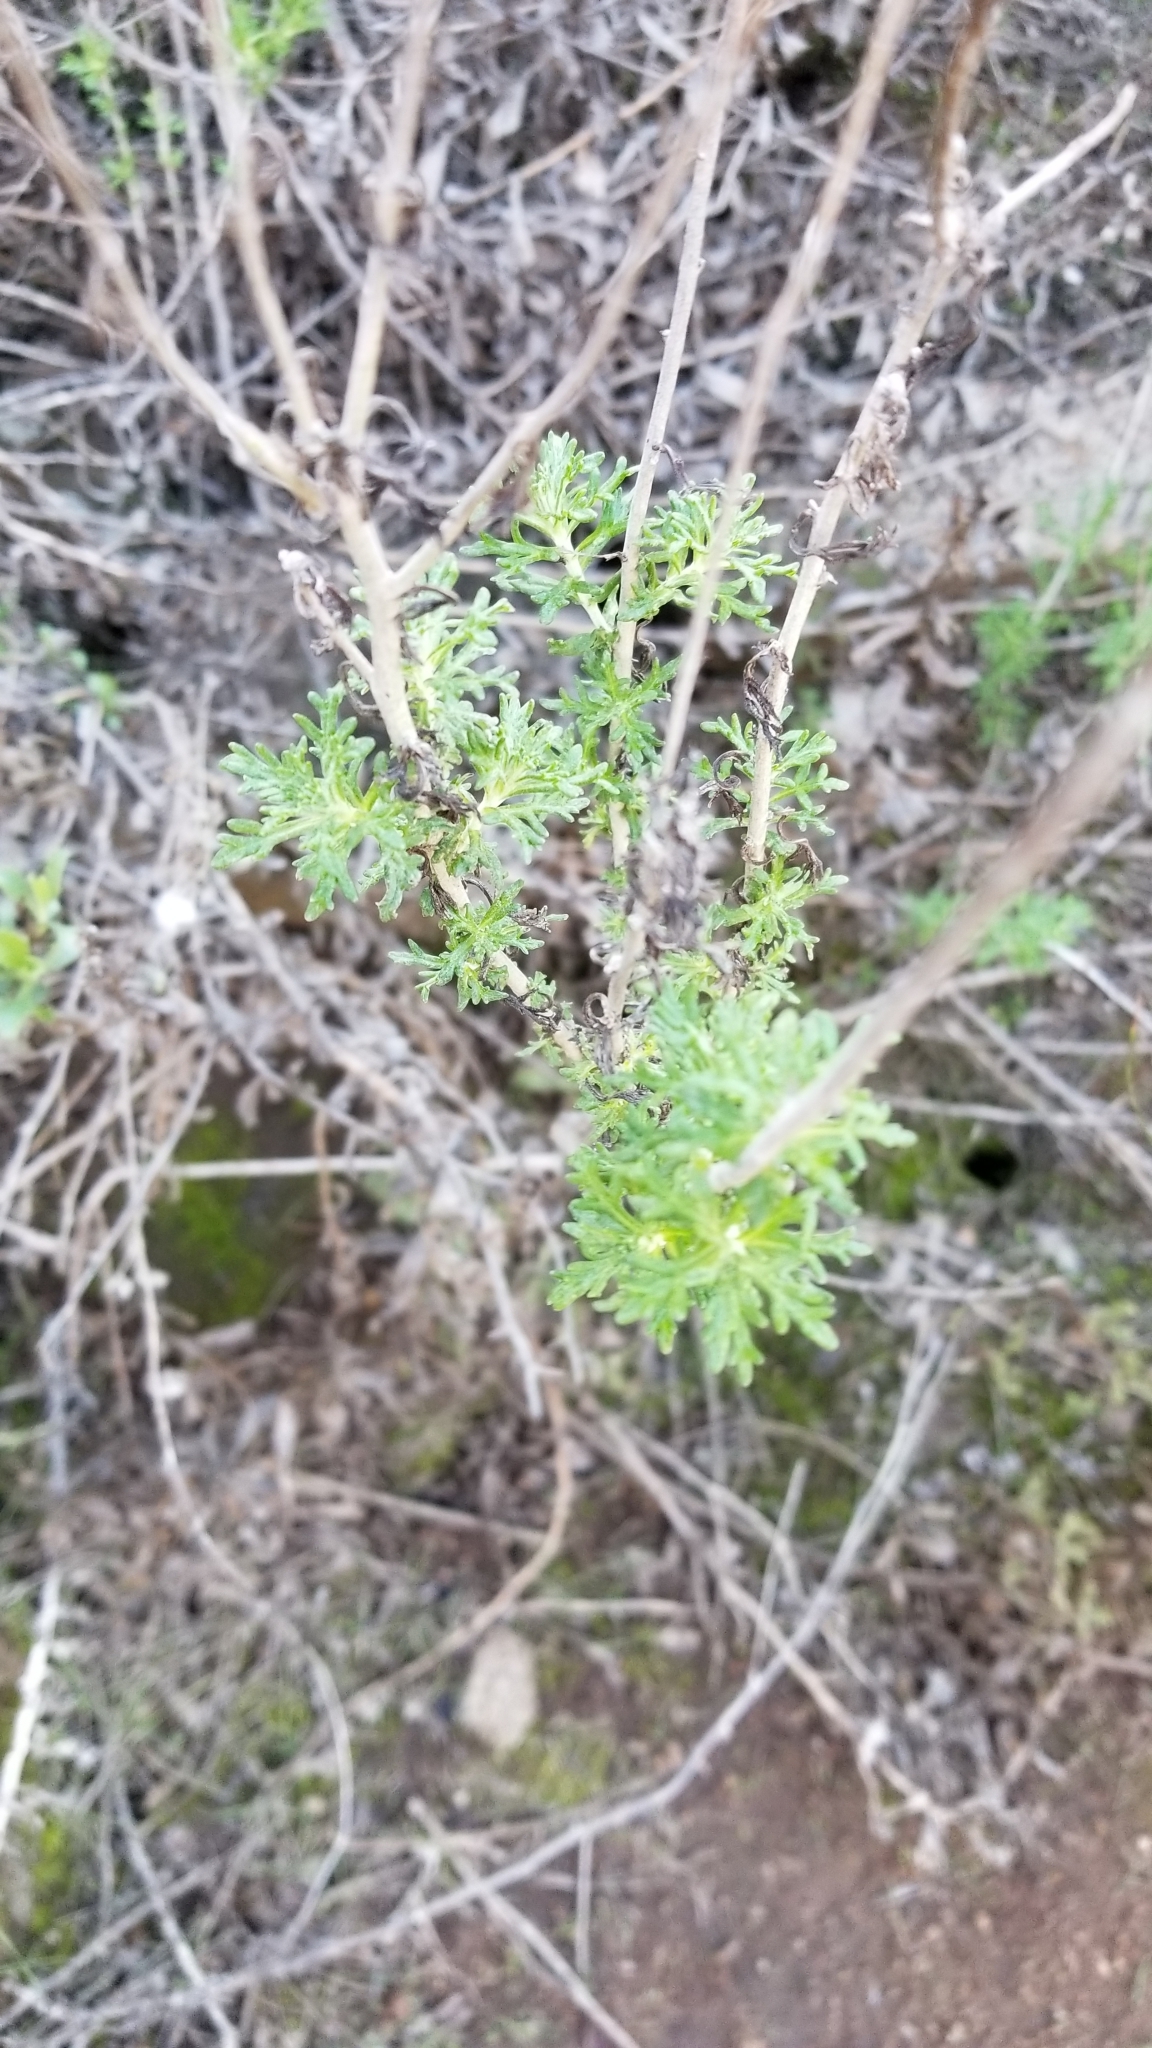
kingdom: Plantae
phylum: Tracheophyta
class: Magnoliopsida
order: Asterales
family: Asteraceae
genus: Eriophyllum
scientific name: Eriophyllum confertiflorum
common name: Golden-yarrow
